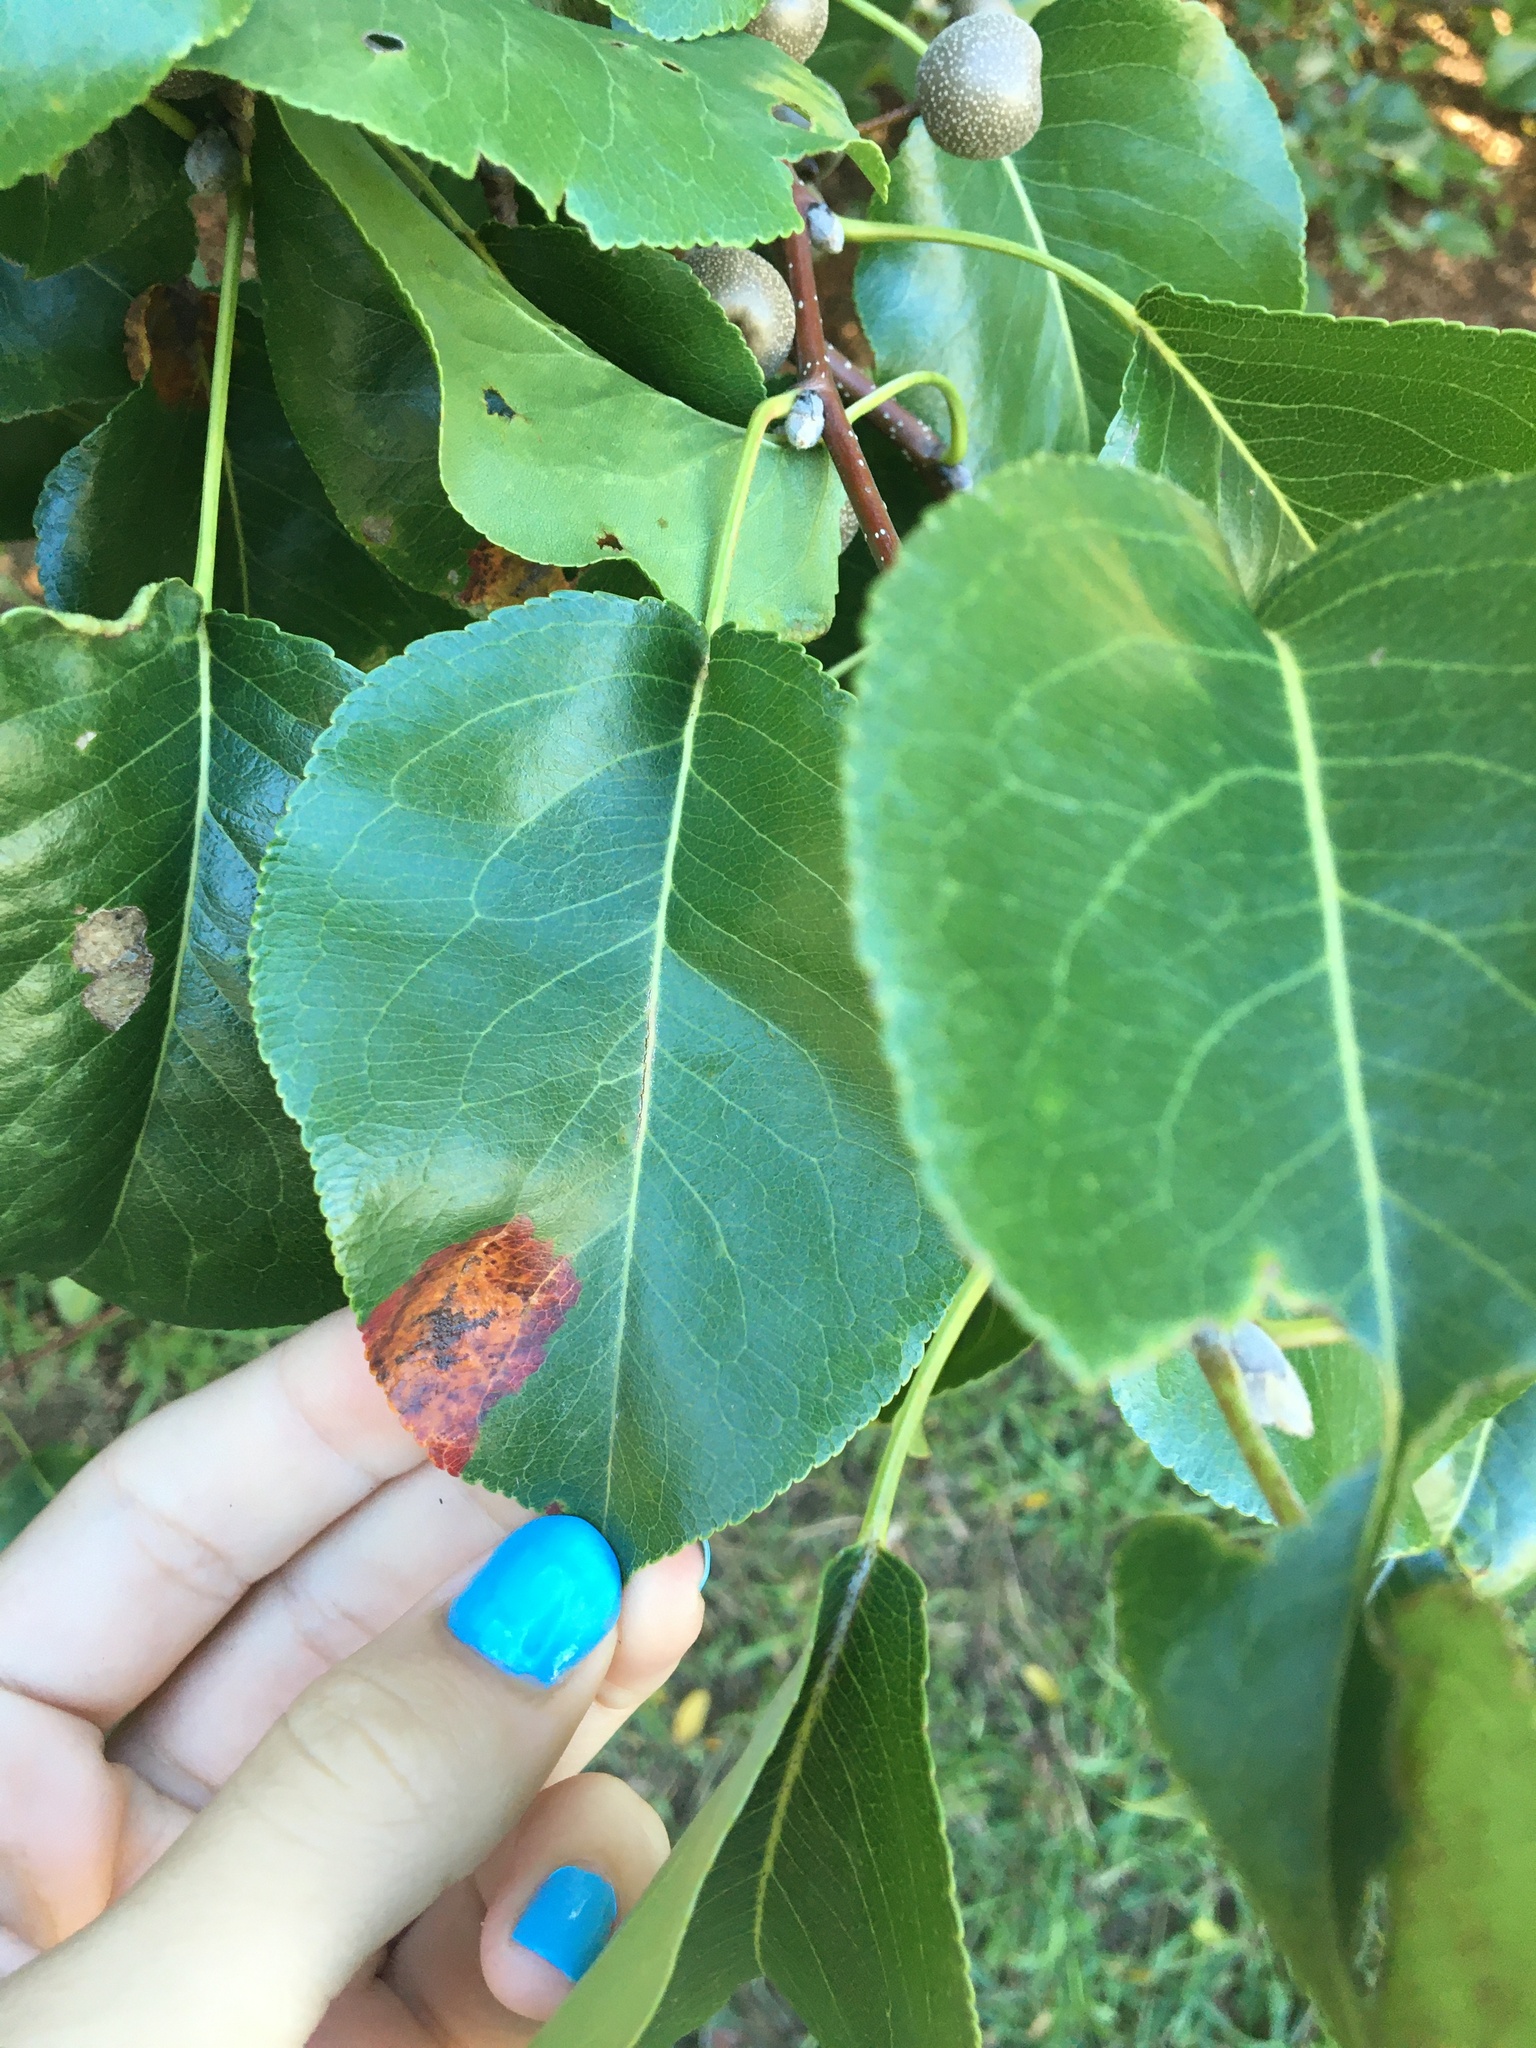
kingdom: Fungi
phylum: Basidiomycota
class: Pucciniomycetes
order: Pucciniales
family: Gymnosporangiaceae
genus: Gymnosporangium
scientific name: Gymnosporangium sabinae
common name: Pear trellis rust fungus
